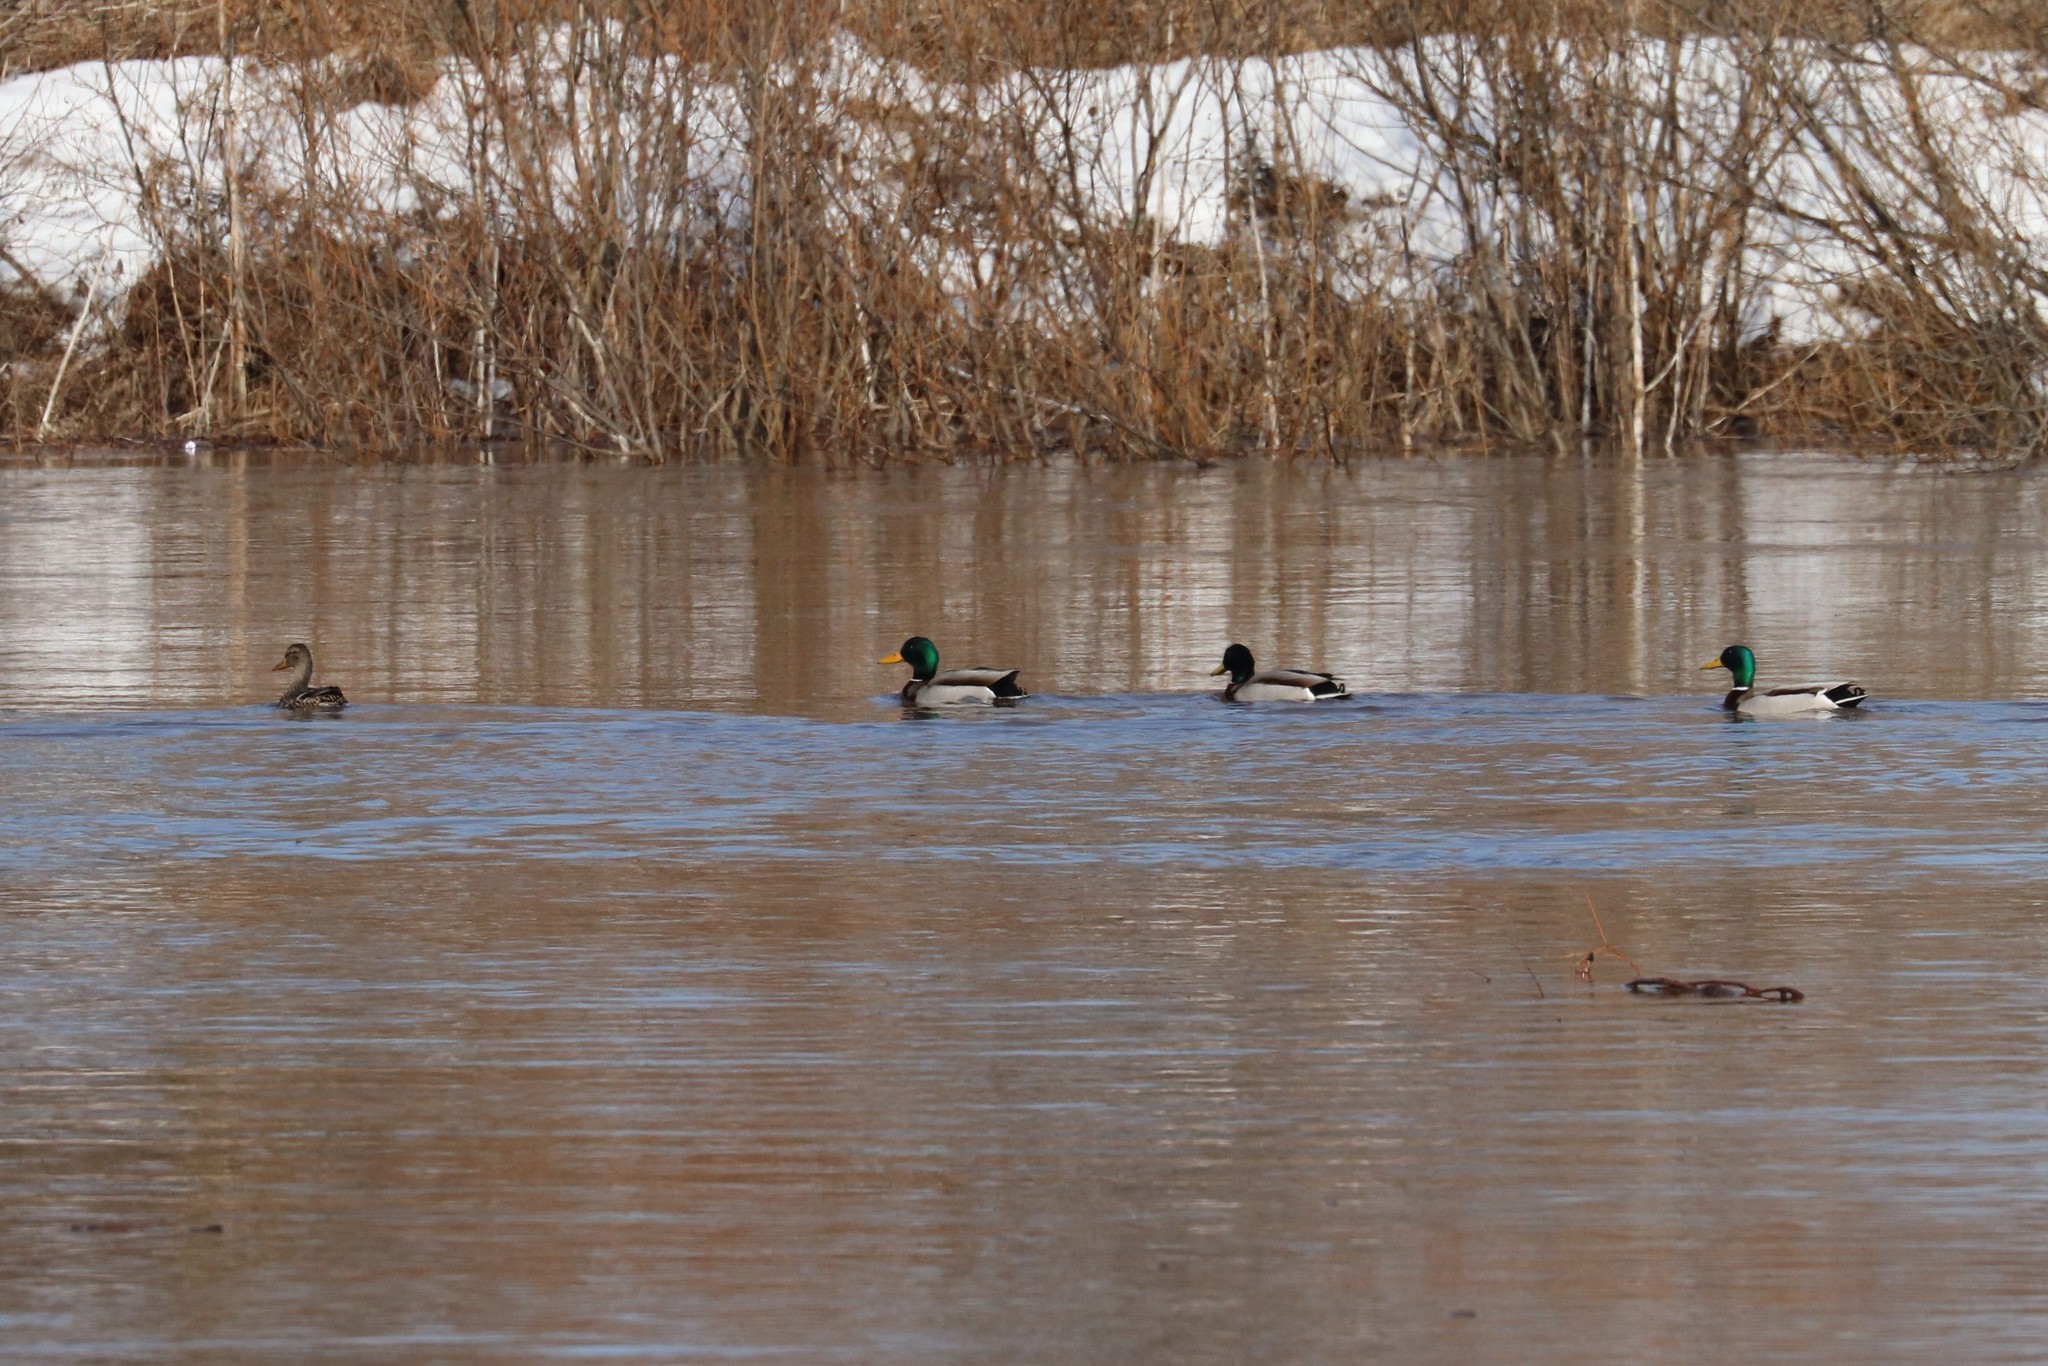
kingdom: Animalia
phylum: Chordata
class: Aves
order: Anseriformes
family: Anatidae
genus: Anas
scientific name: Anas platyrhynchos
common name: Mallard
